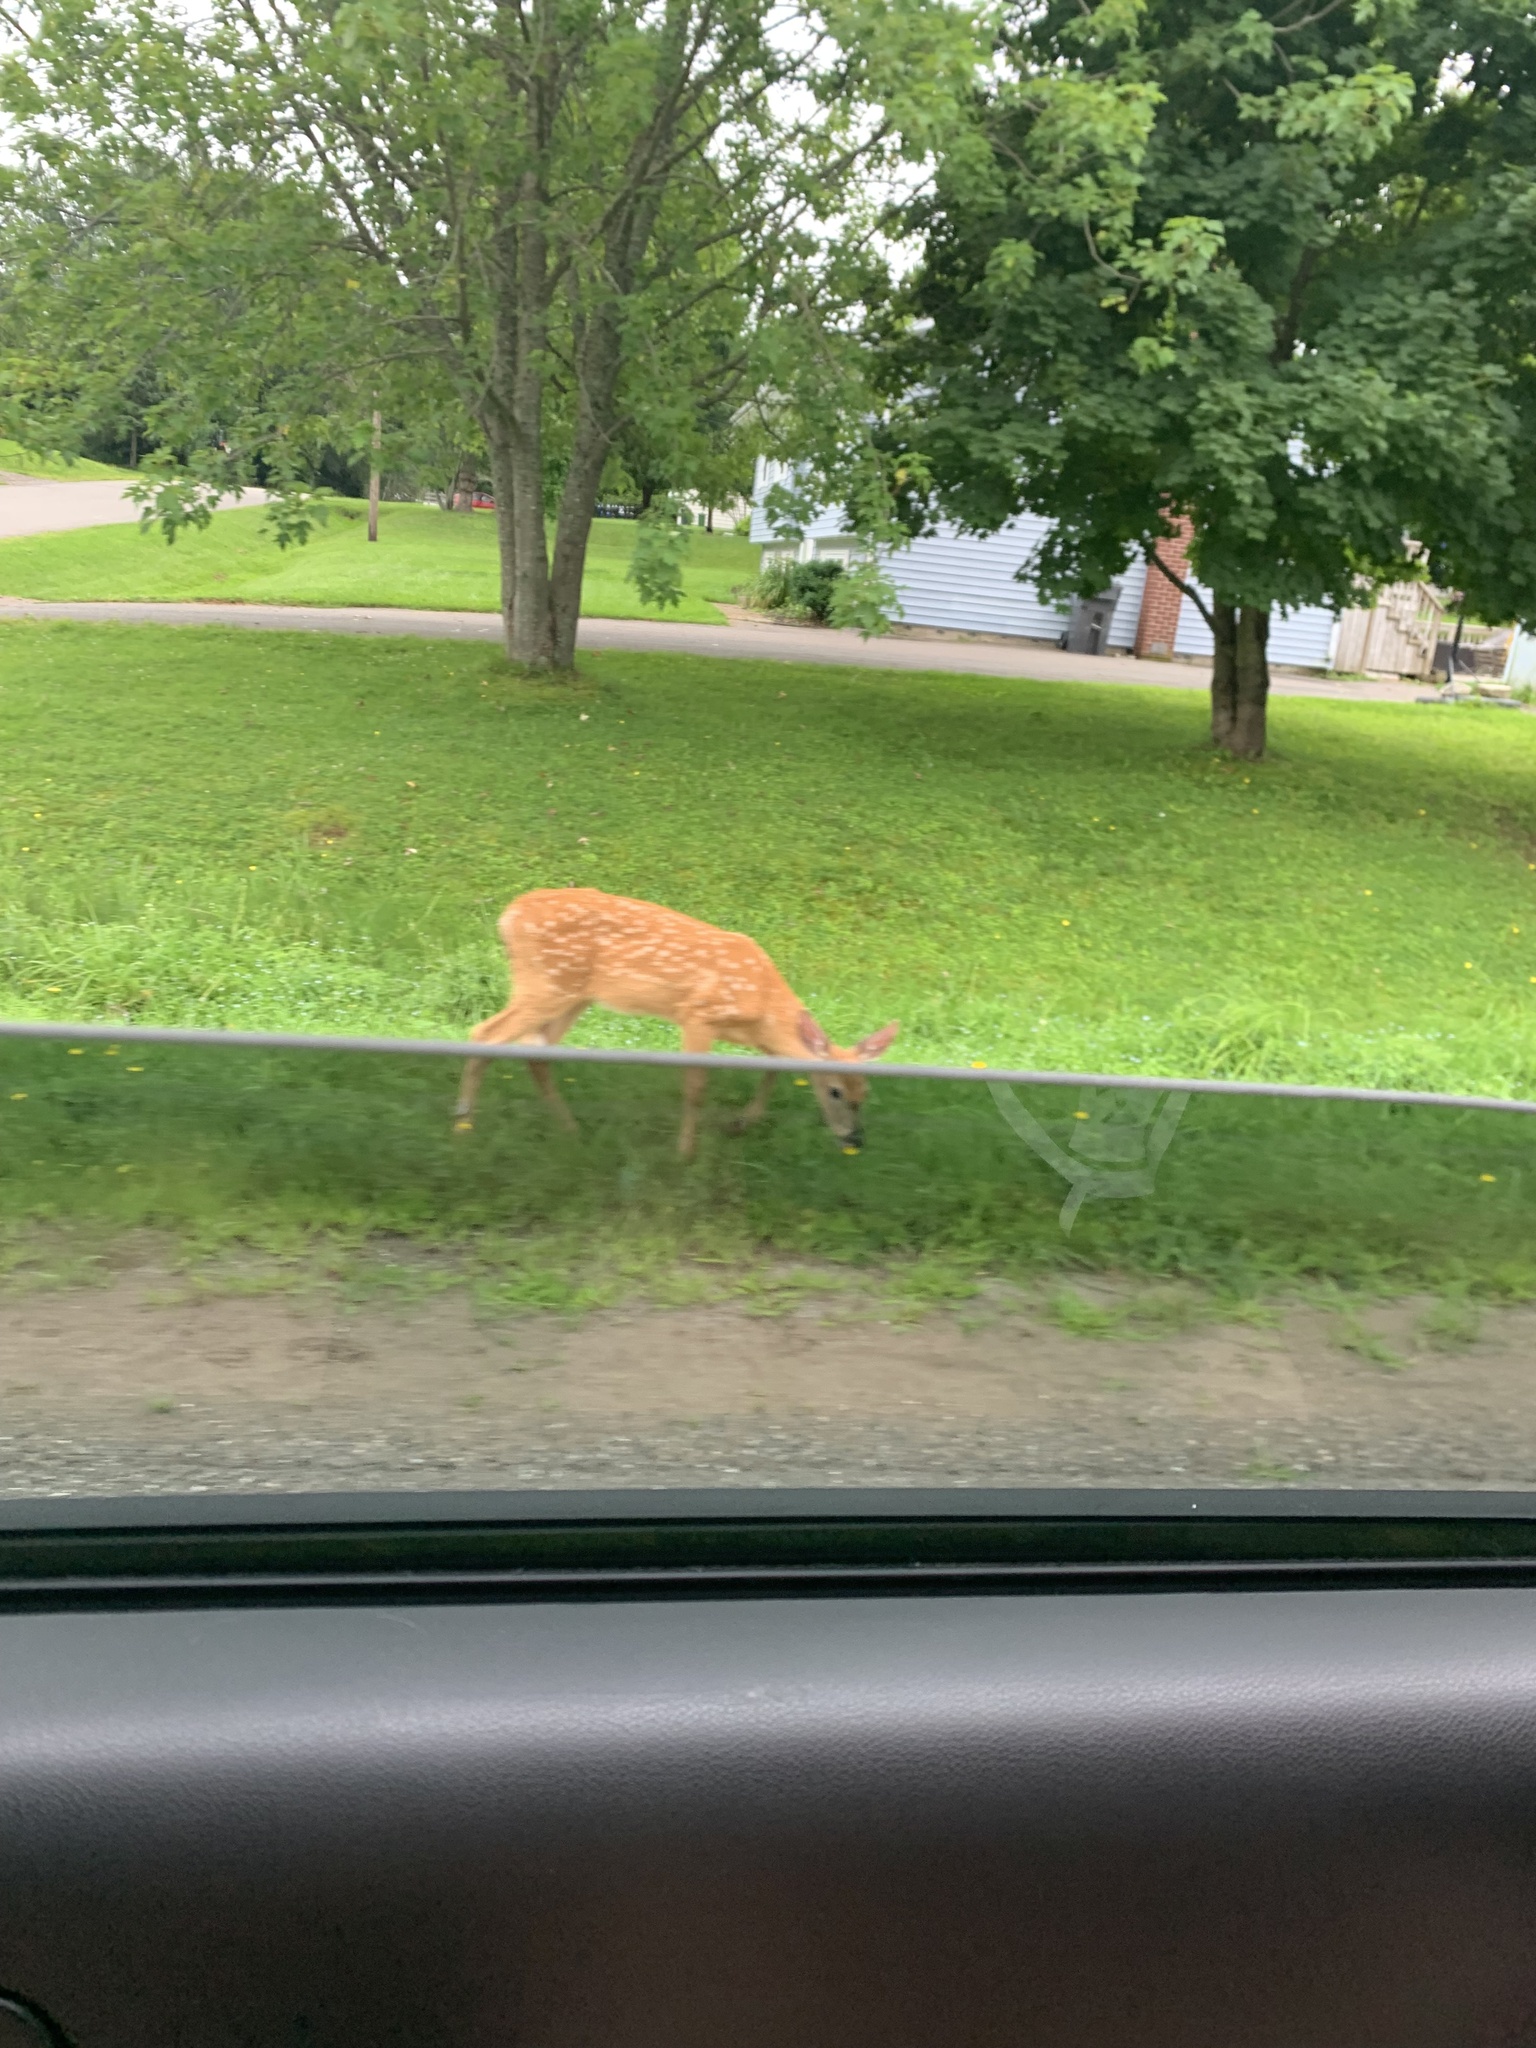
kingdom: Animalia
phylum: Chordata
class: Mammalia
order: Artiodactyla
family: Cervidae
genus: Odocoileus
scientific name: Odocoileus virginianus
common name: White-tailed deer
